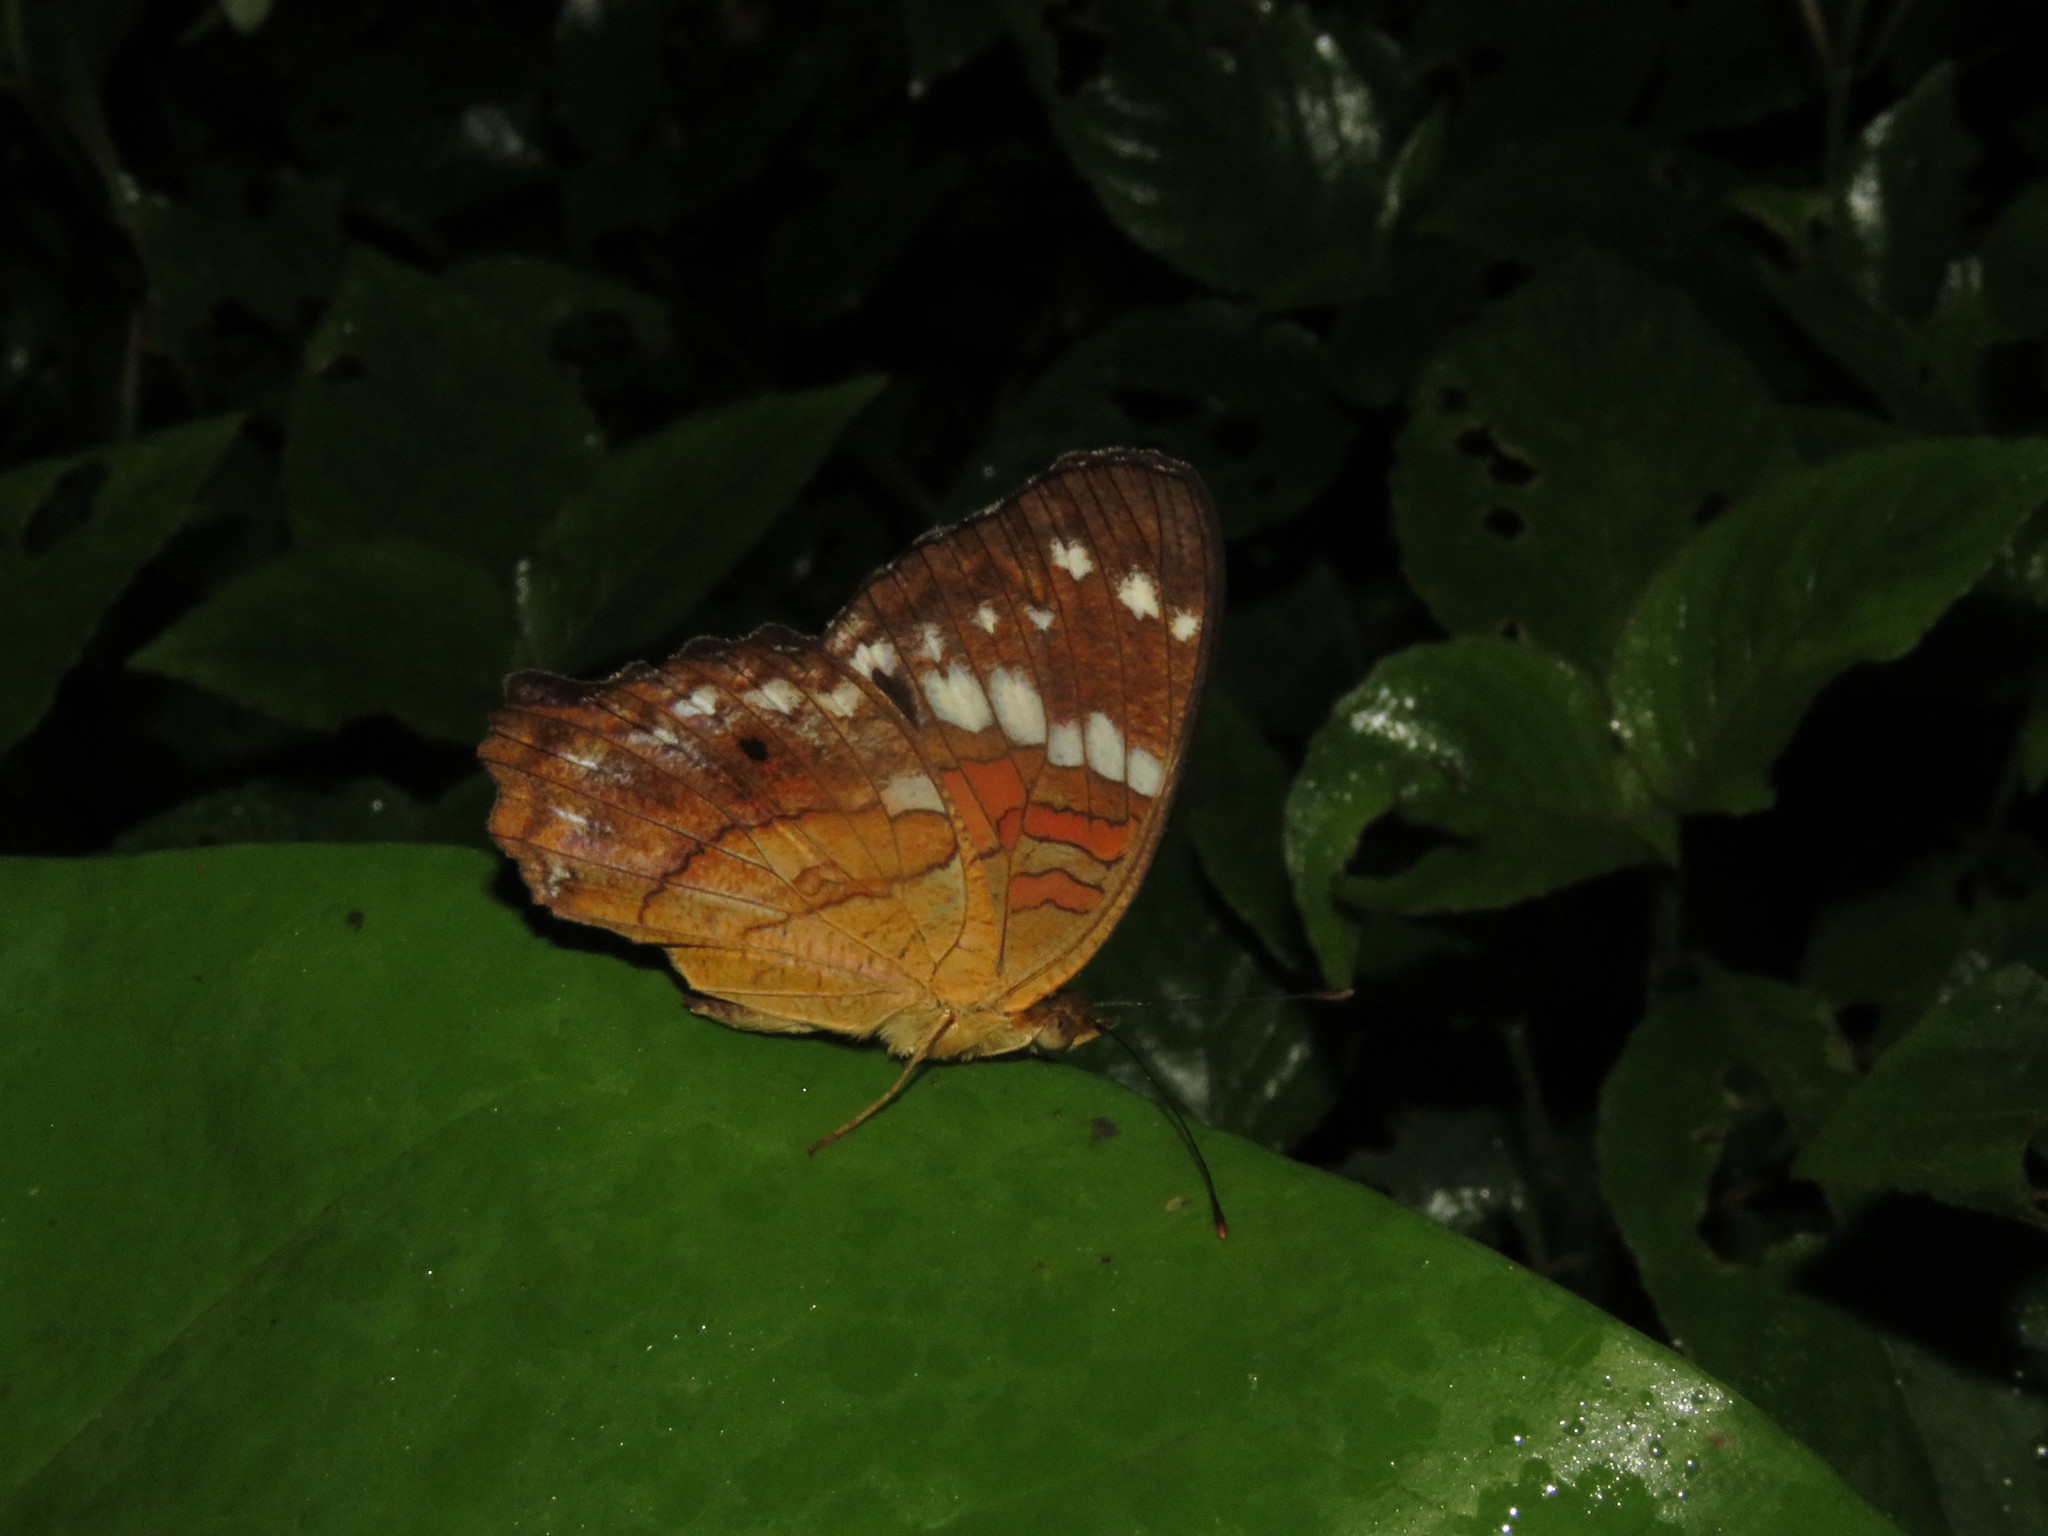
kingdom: Animalia
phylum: Arthropoda
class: Insecta
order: Lepidoptera
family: Nymphalidae
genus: Anartia
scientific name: Anartia amathea
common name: Red peacock
